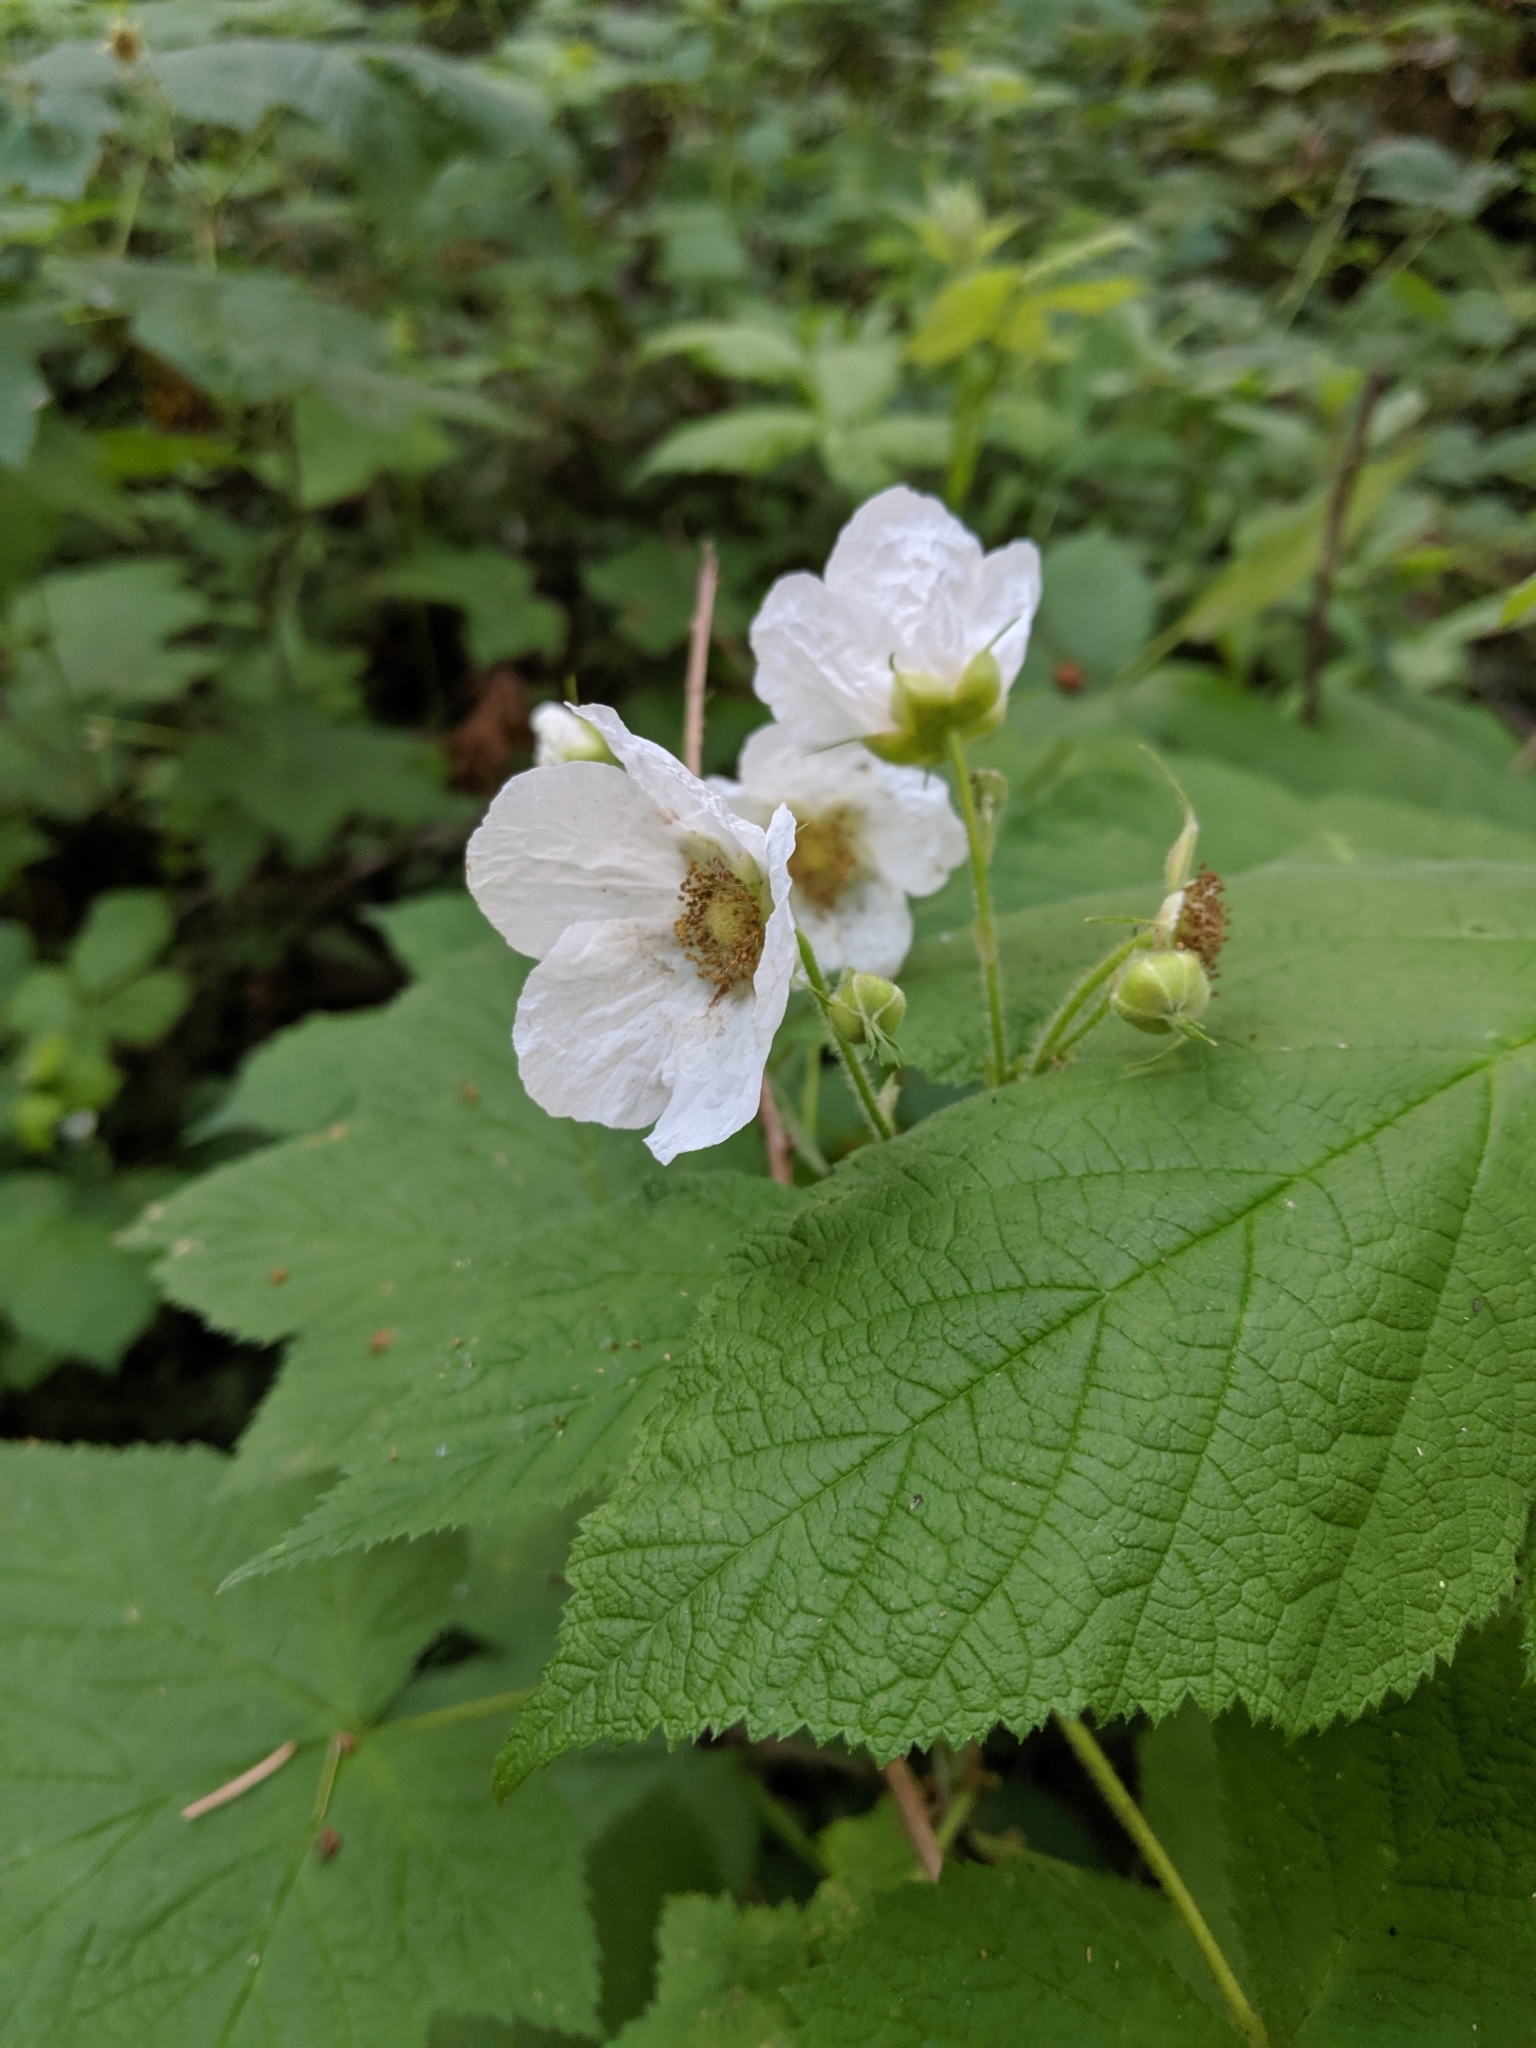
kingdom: Plantae
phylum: Tracheophyta
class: Magnoliopsida
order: Rosales
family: Rosaceae
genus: Rubus
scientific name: Rubus parviflorus
